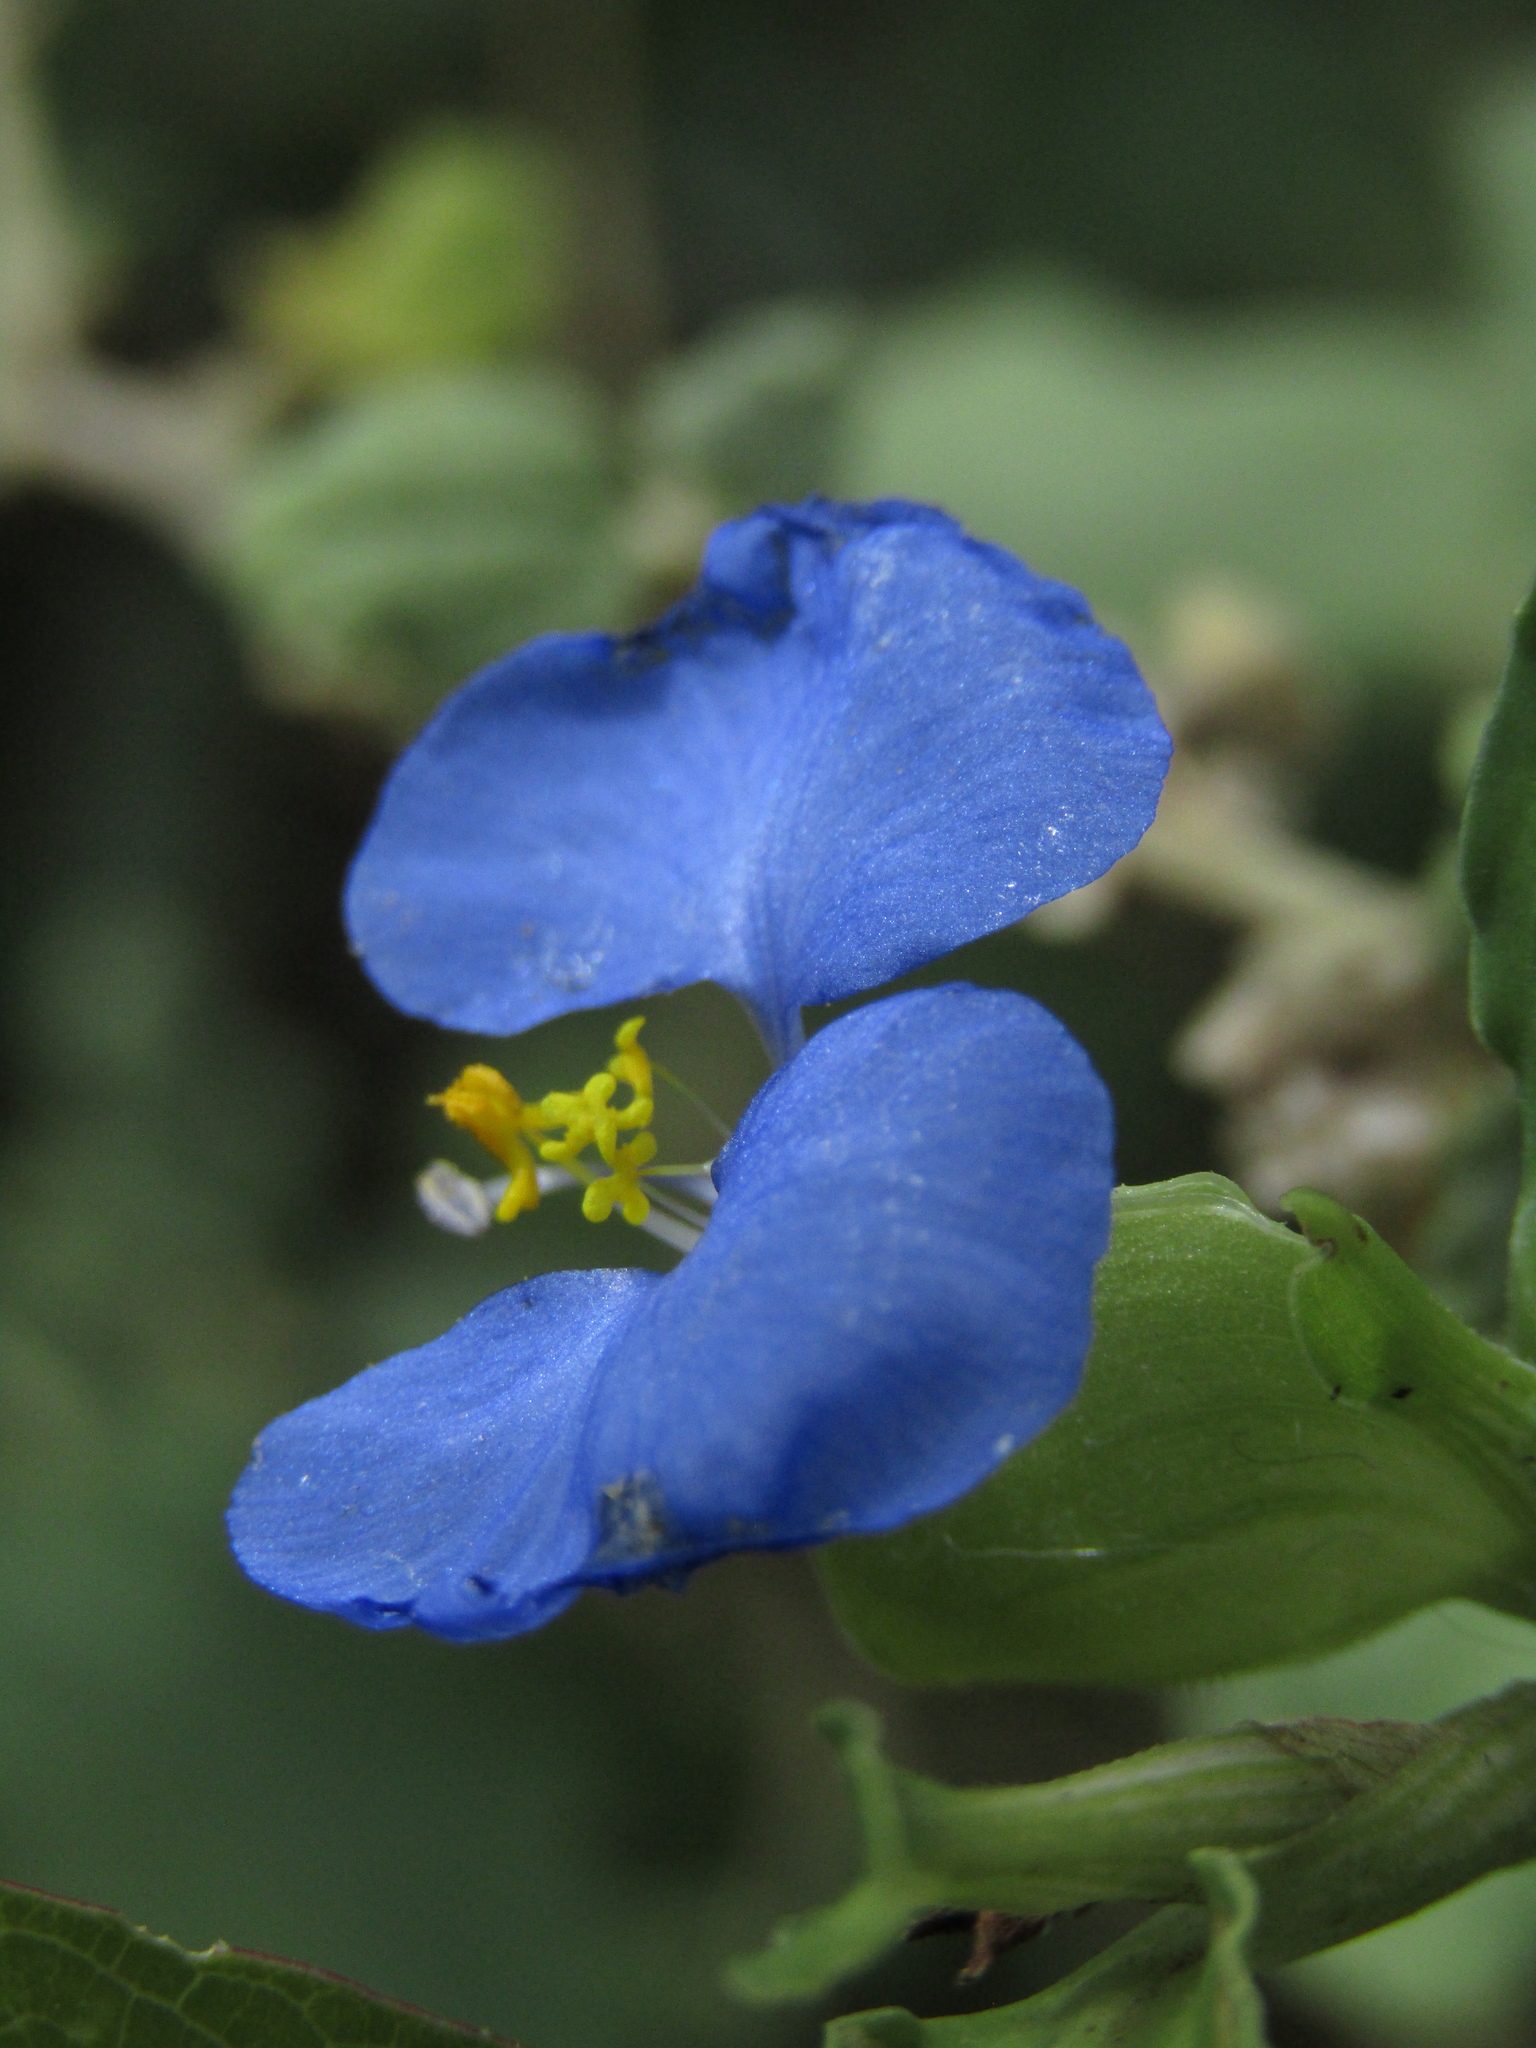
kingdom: Plantae
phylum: Tracheophyta
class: Liliopsida
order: Commelinales
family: Commelinaceae
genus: Commelina
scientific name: Commelina erecta
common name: Blousel blommetjie
